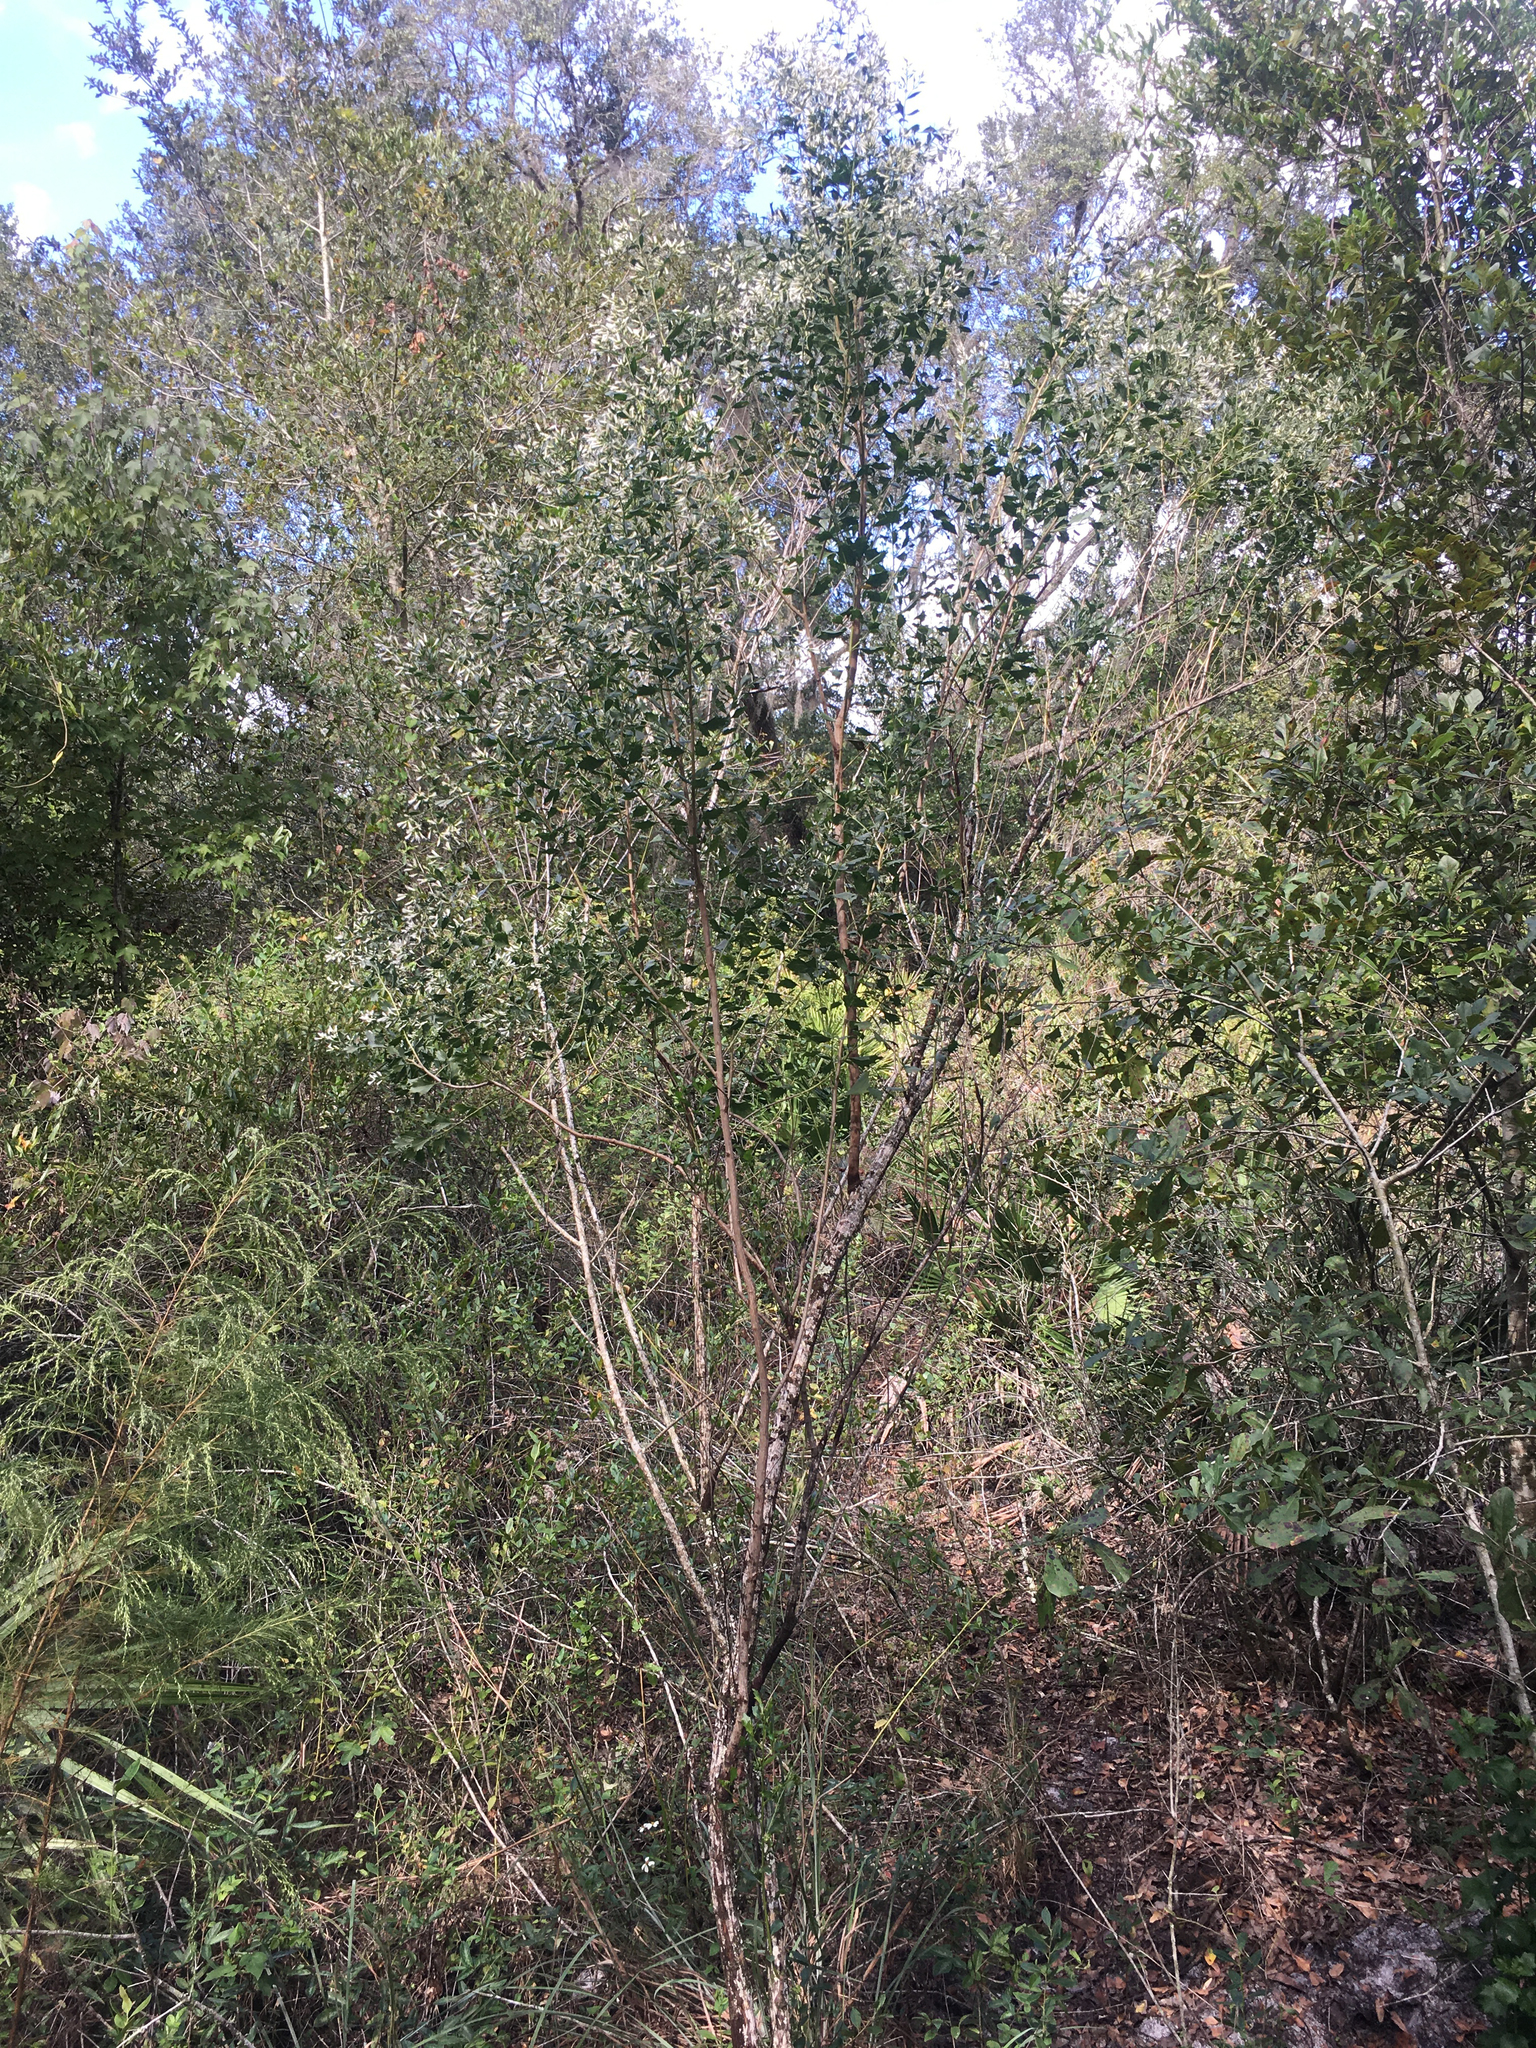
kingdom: Plantae
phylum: Tracheophyta
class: Magnoliopsida
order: Asterales
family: Asteraceae
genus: Baccharis
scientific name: Baccharis halimifolia
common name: Eastern baccharis
